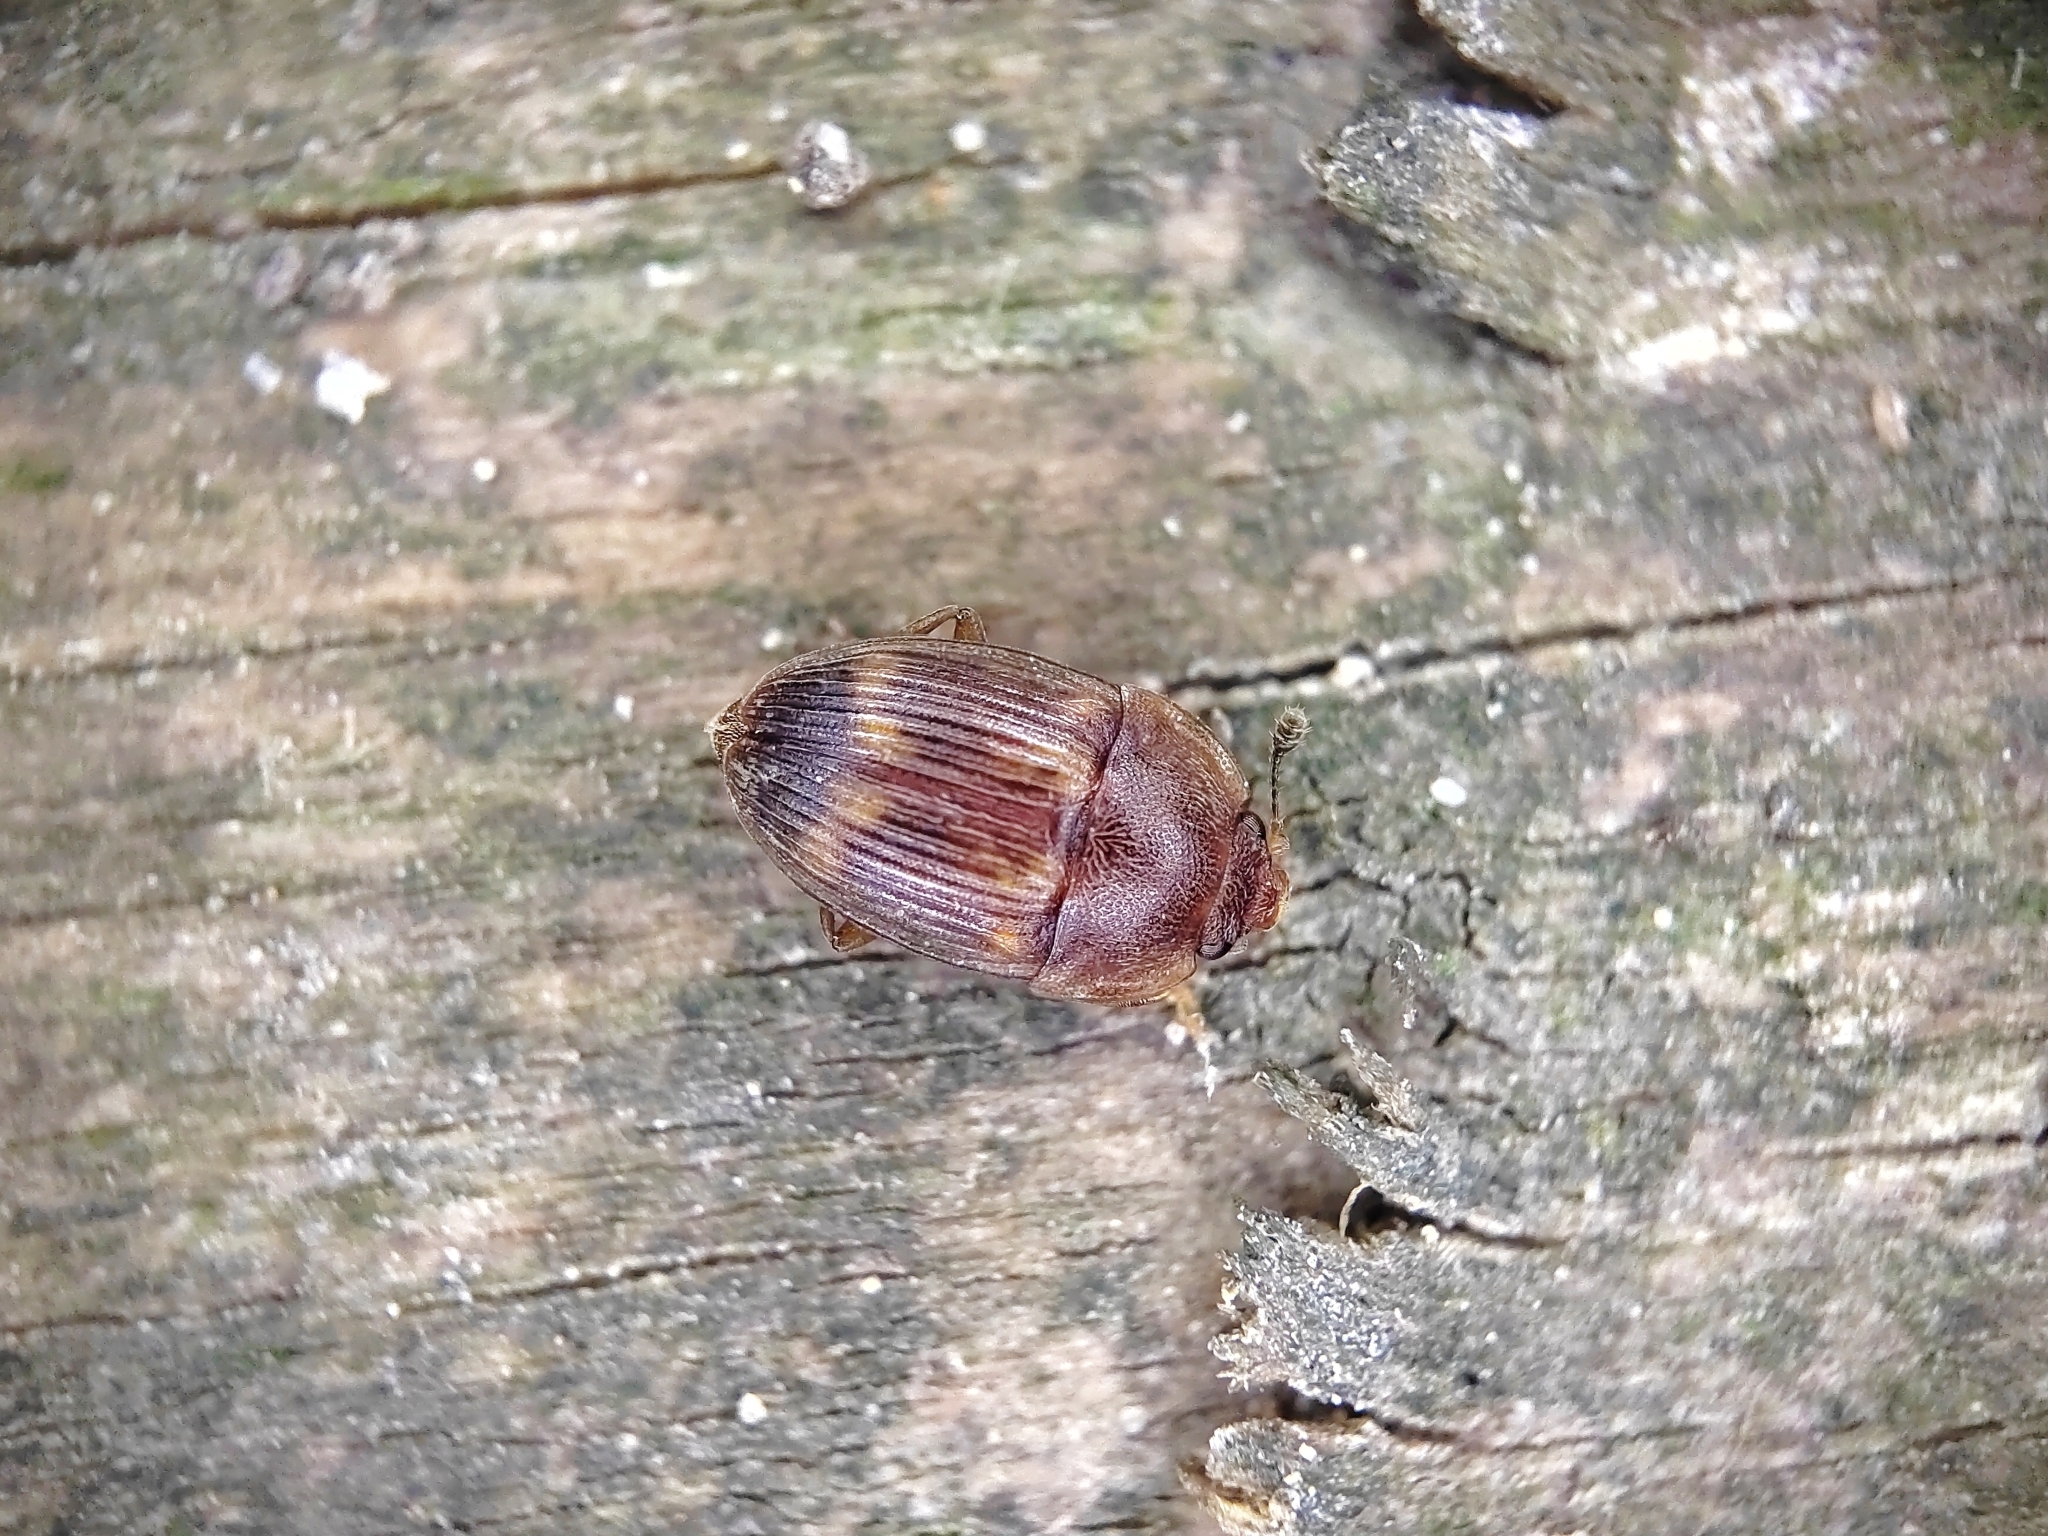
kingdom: Animalia
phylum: Arthropoda
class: Insecta
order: Coleoptera
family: Nitidulidae
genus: Stelidota
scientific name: Stelidota geminata
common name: Strawberry sap beetle
